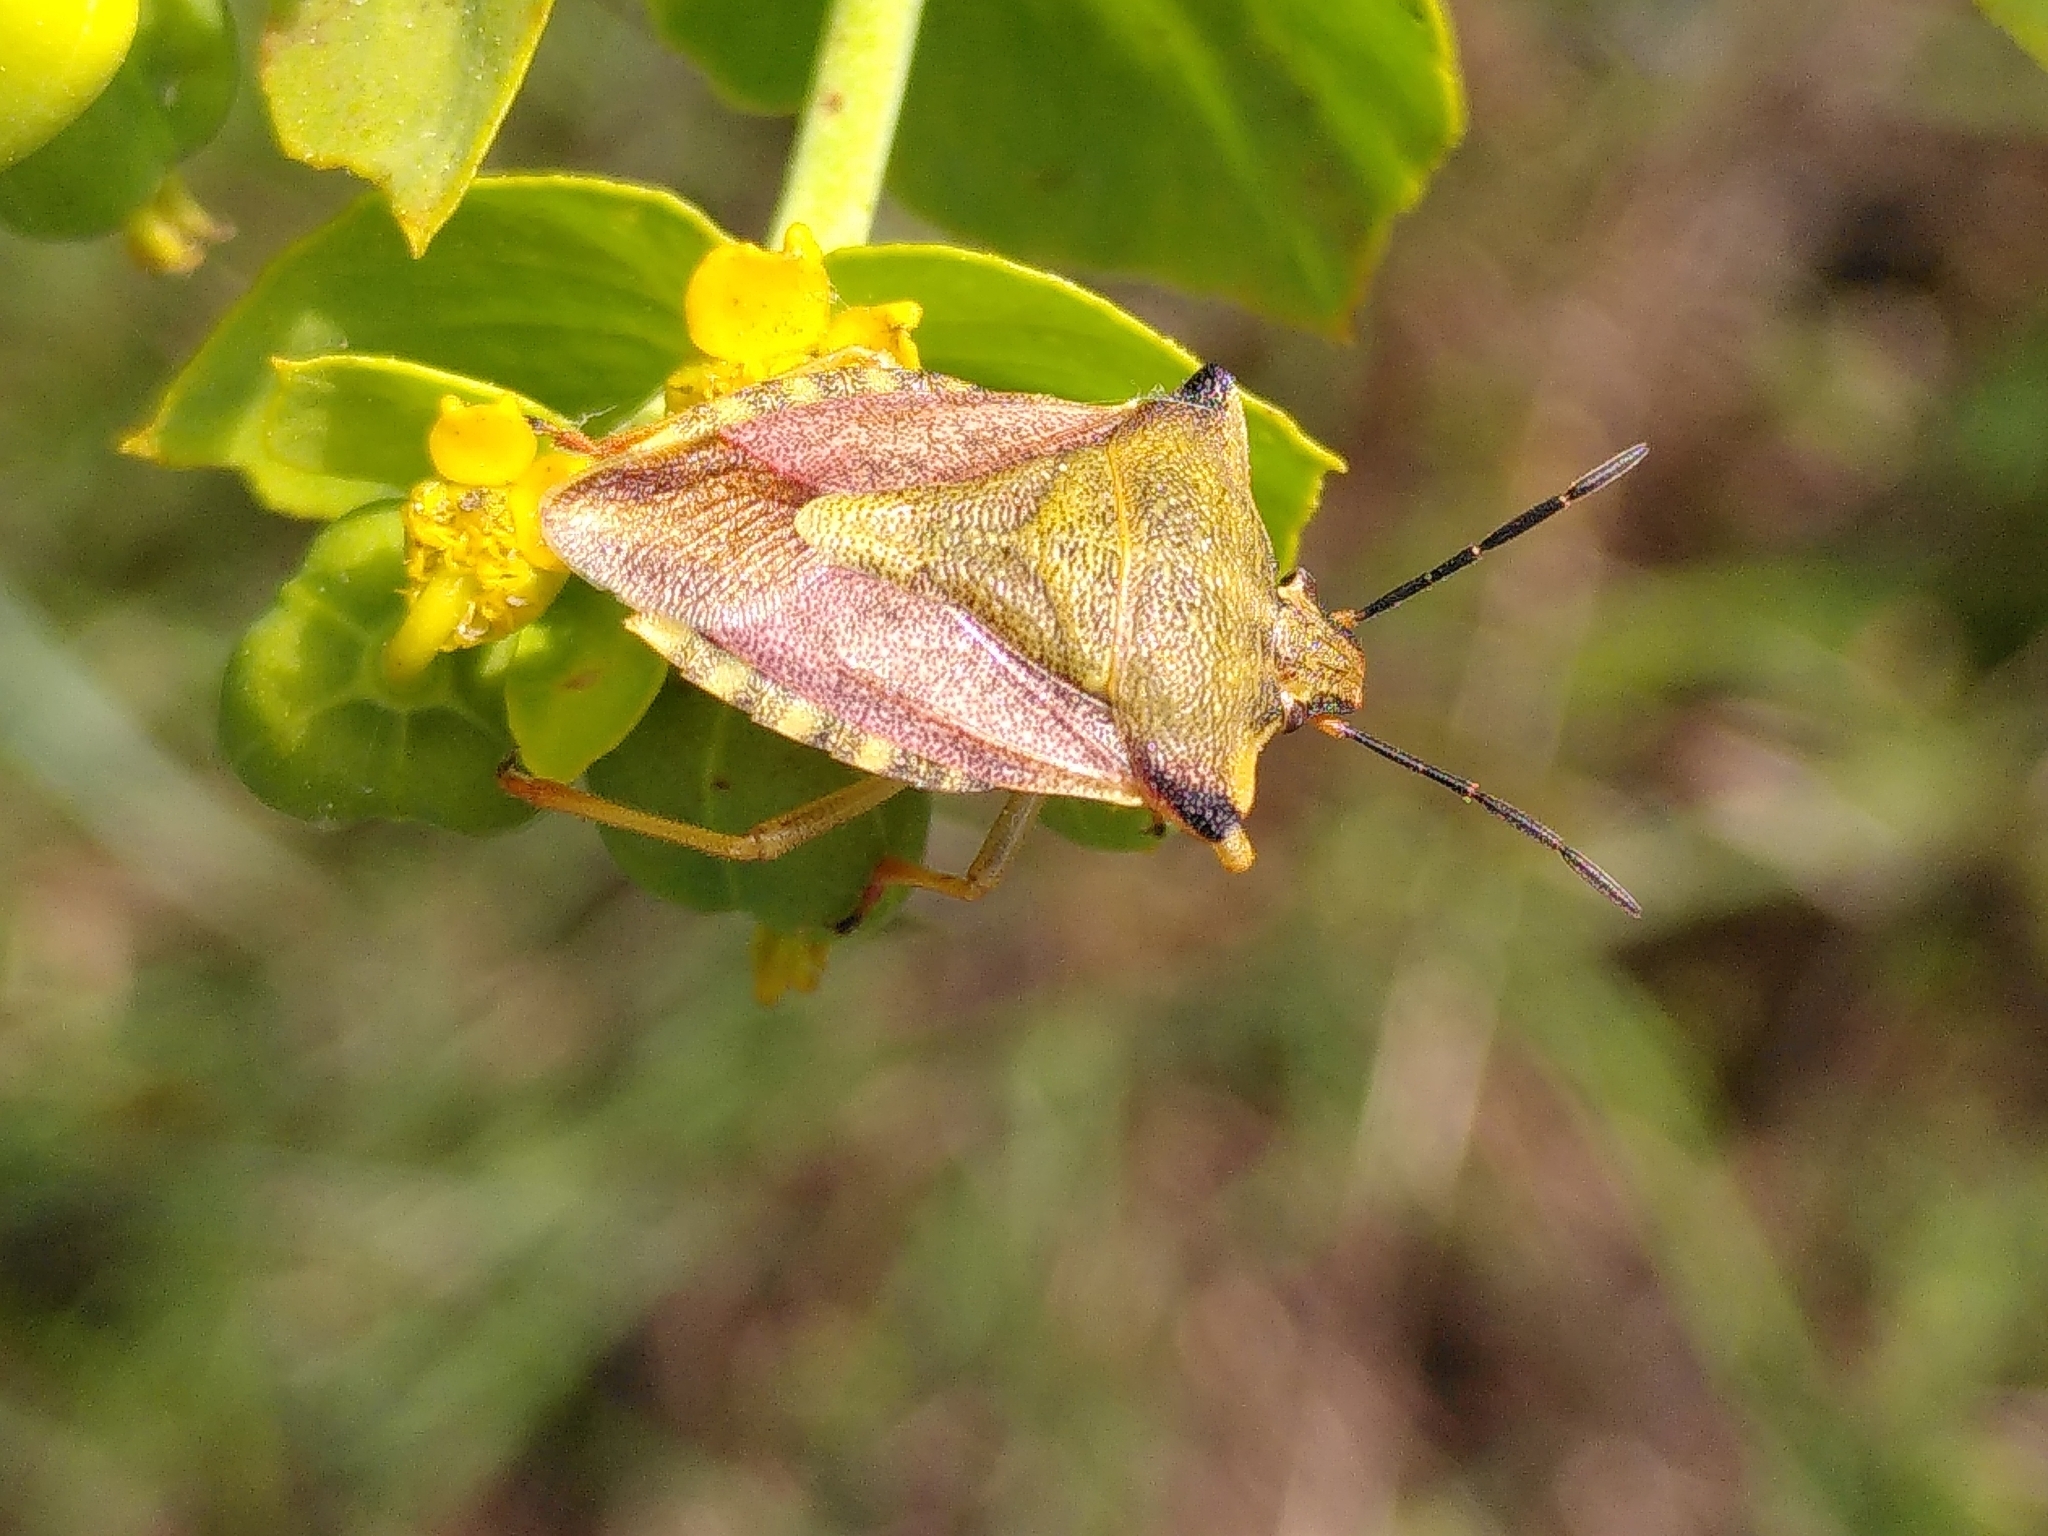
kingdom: Animalia
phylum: Arthropoda
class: Insecta
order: Hemiptera
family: Pentatomidae
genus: Carpocoris
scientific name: Carpocoris mediterraneus
